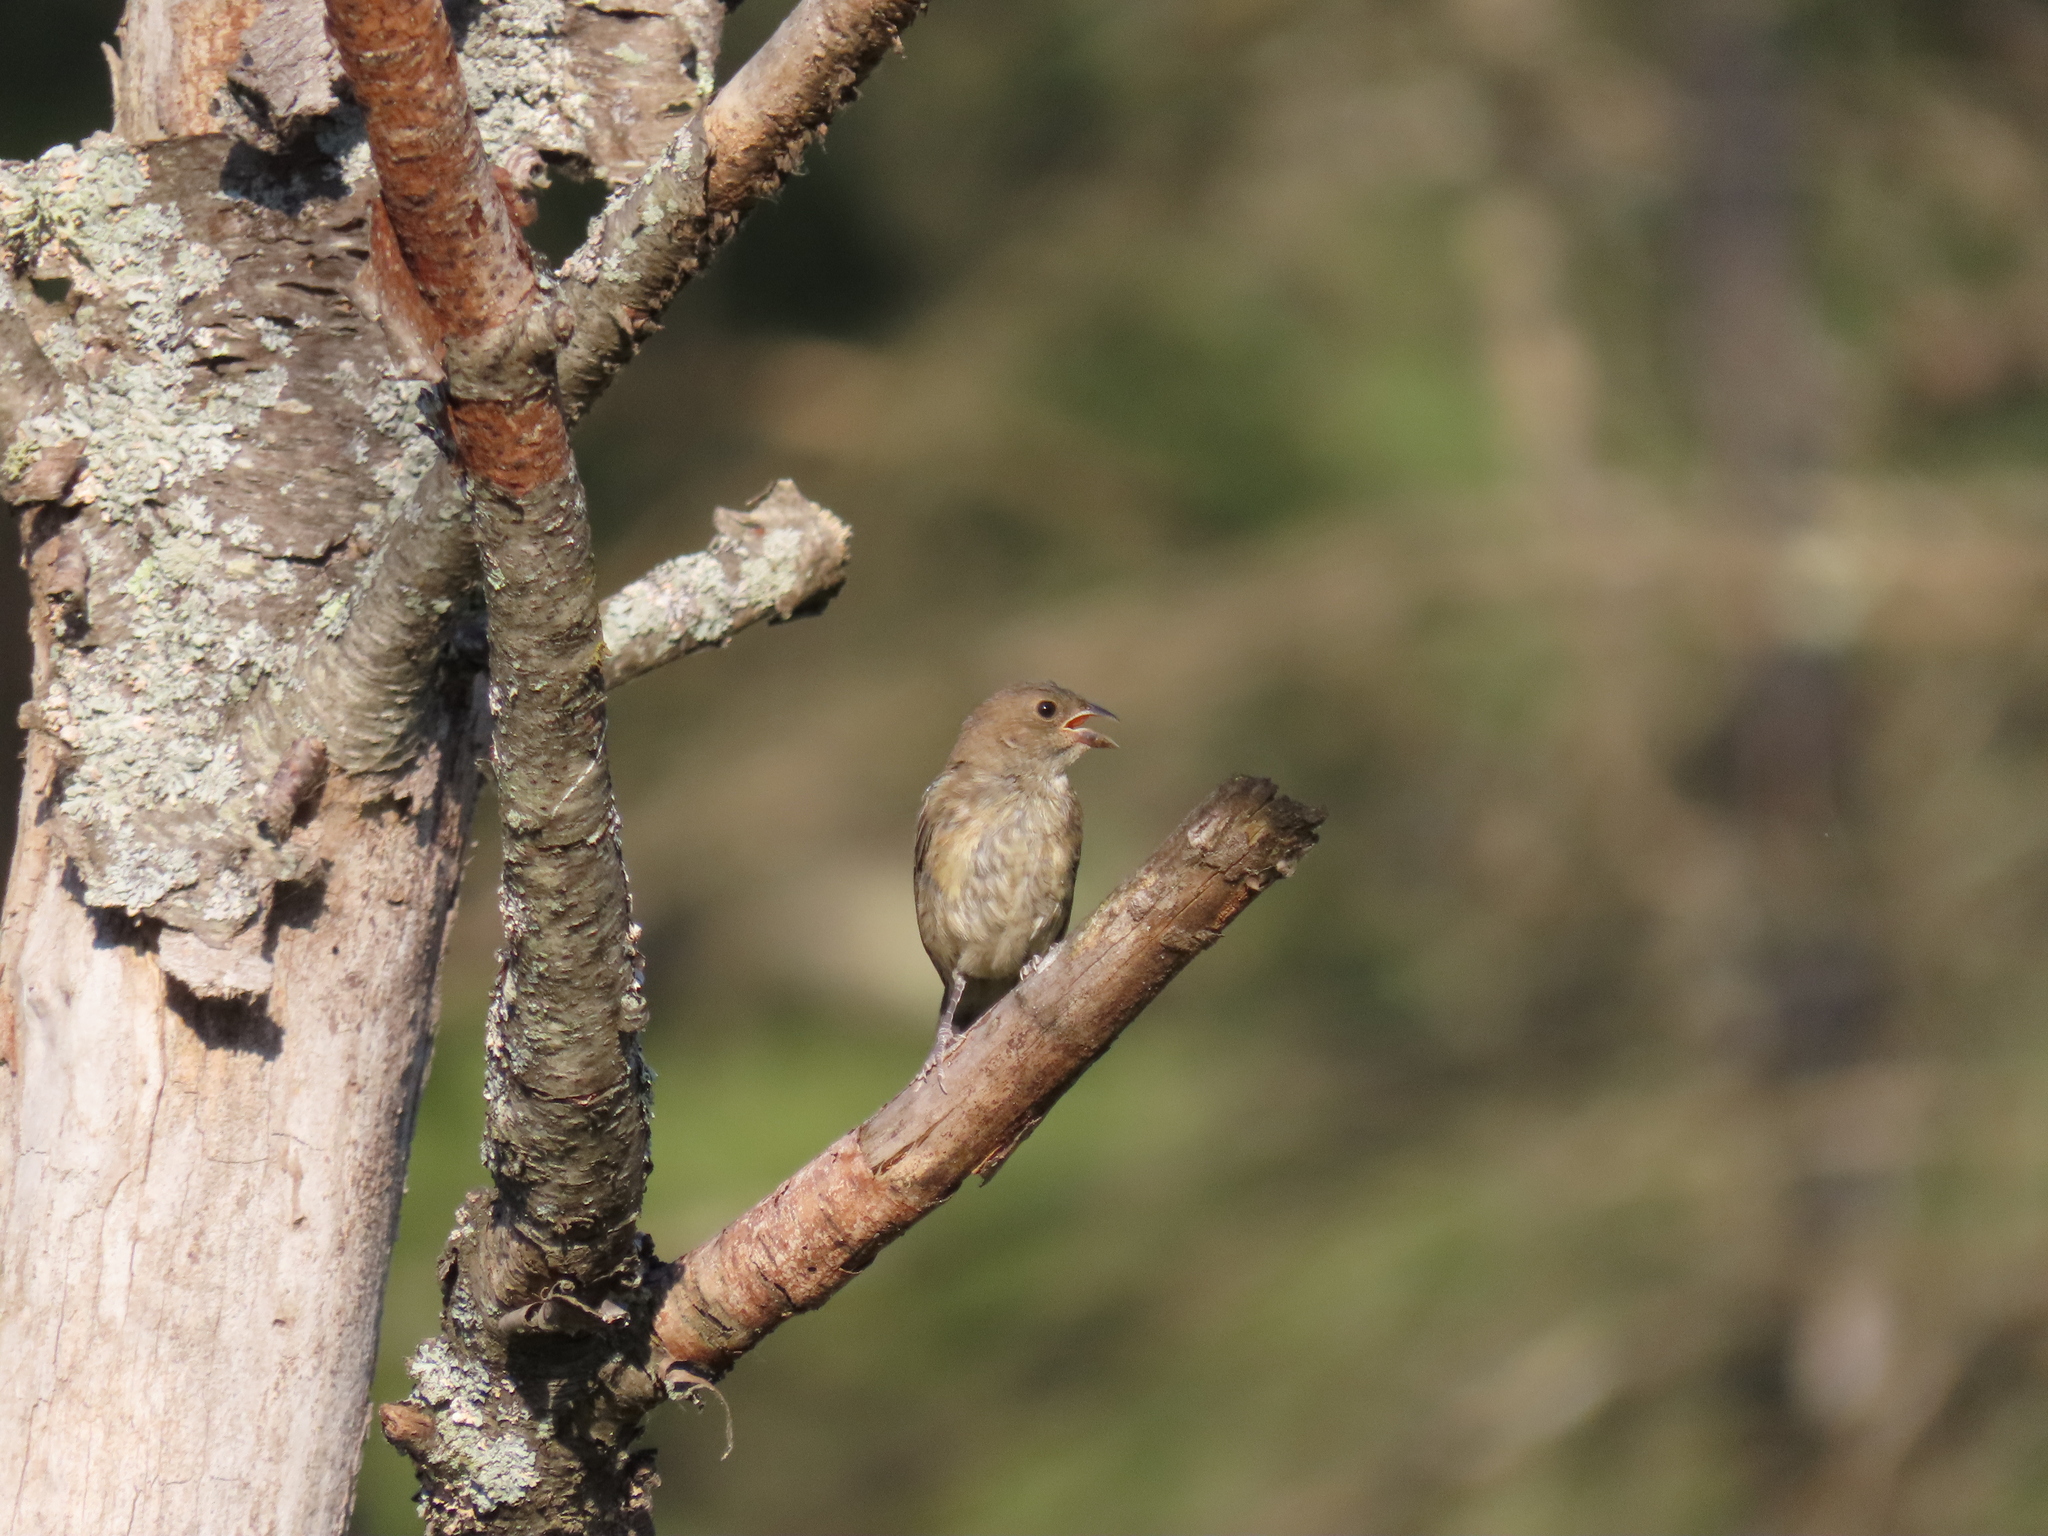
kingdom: Animalia
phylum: Chordata
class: Aves
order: Passeriformes
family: Cardinalidae
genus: Passerina
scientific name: Passerina cyanea
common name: Indigo bunting
